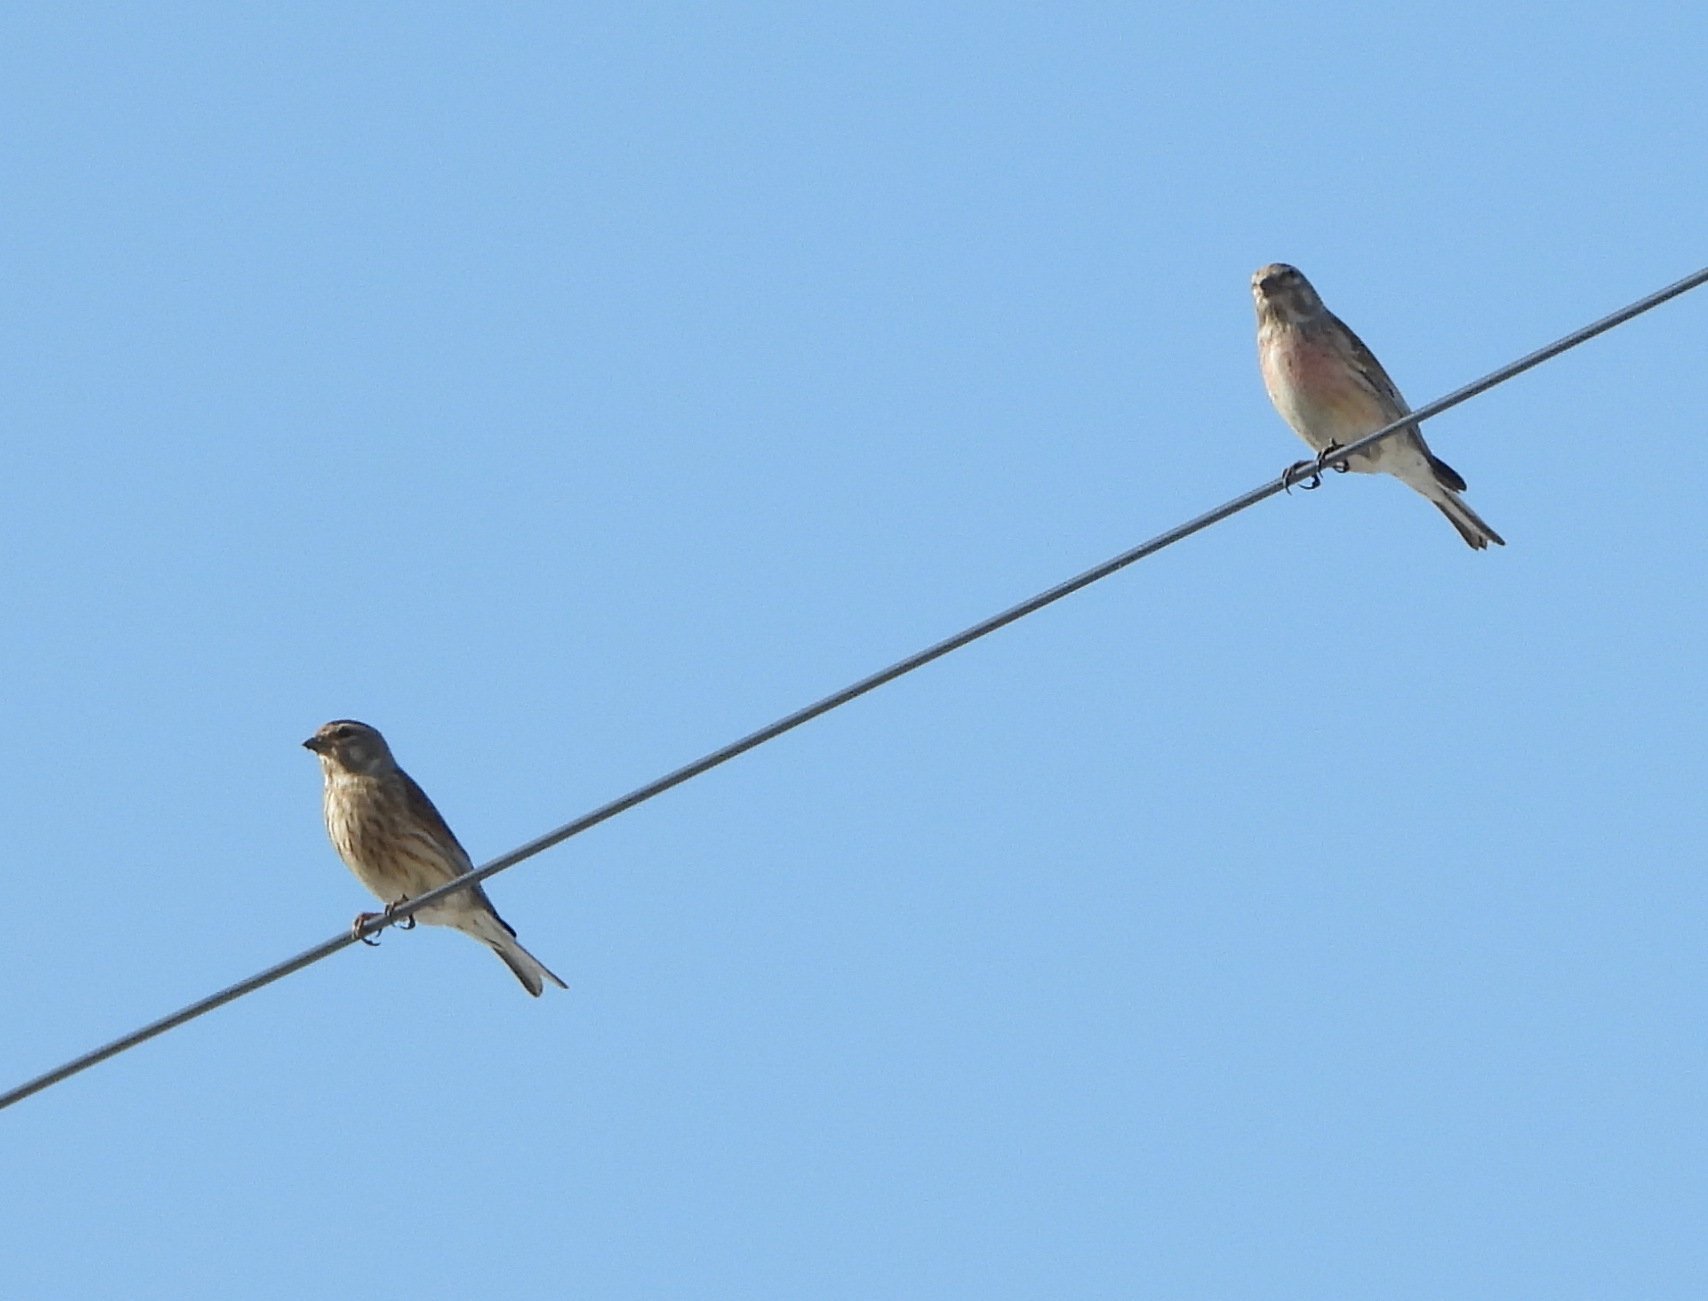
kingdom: Animalia
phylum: Chordata
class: Aves
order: Passeriformes
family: Fringillidae
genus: Linaria
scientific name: Linaria cannabina
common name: Common linnet
